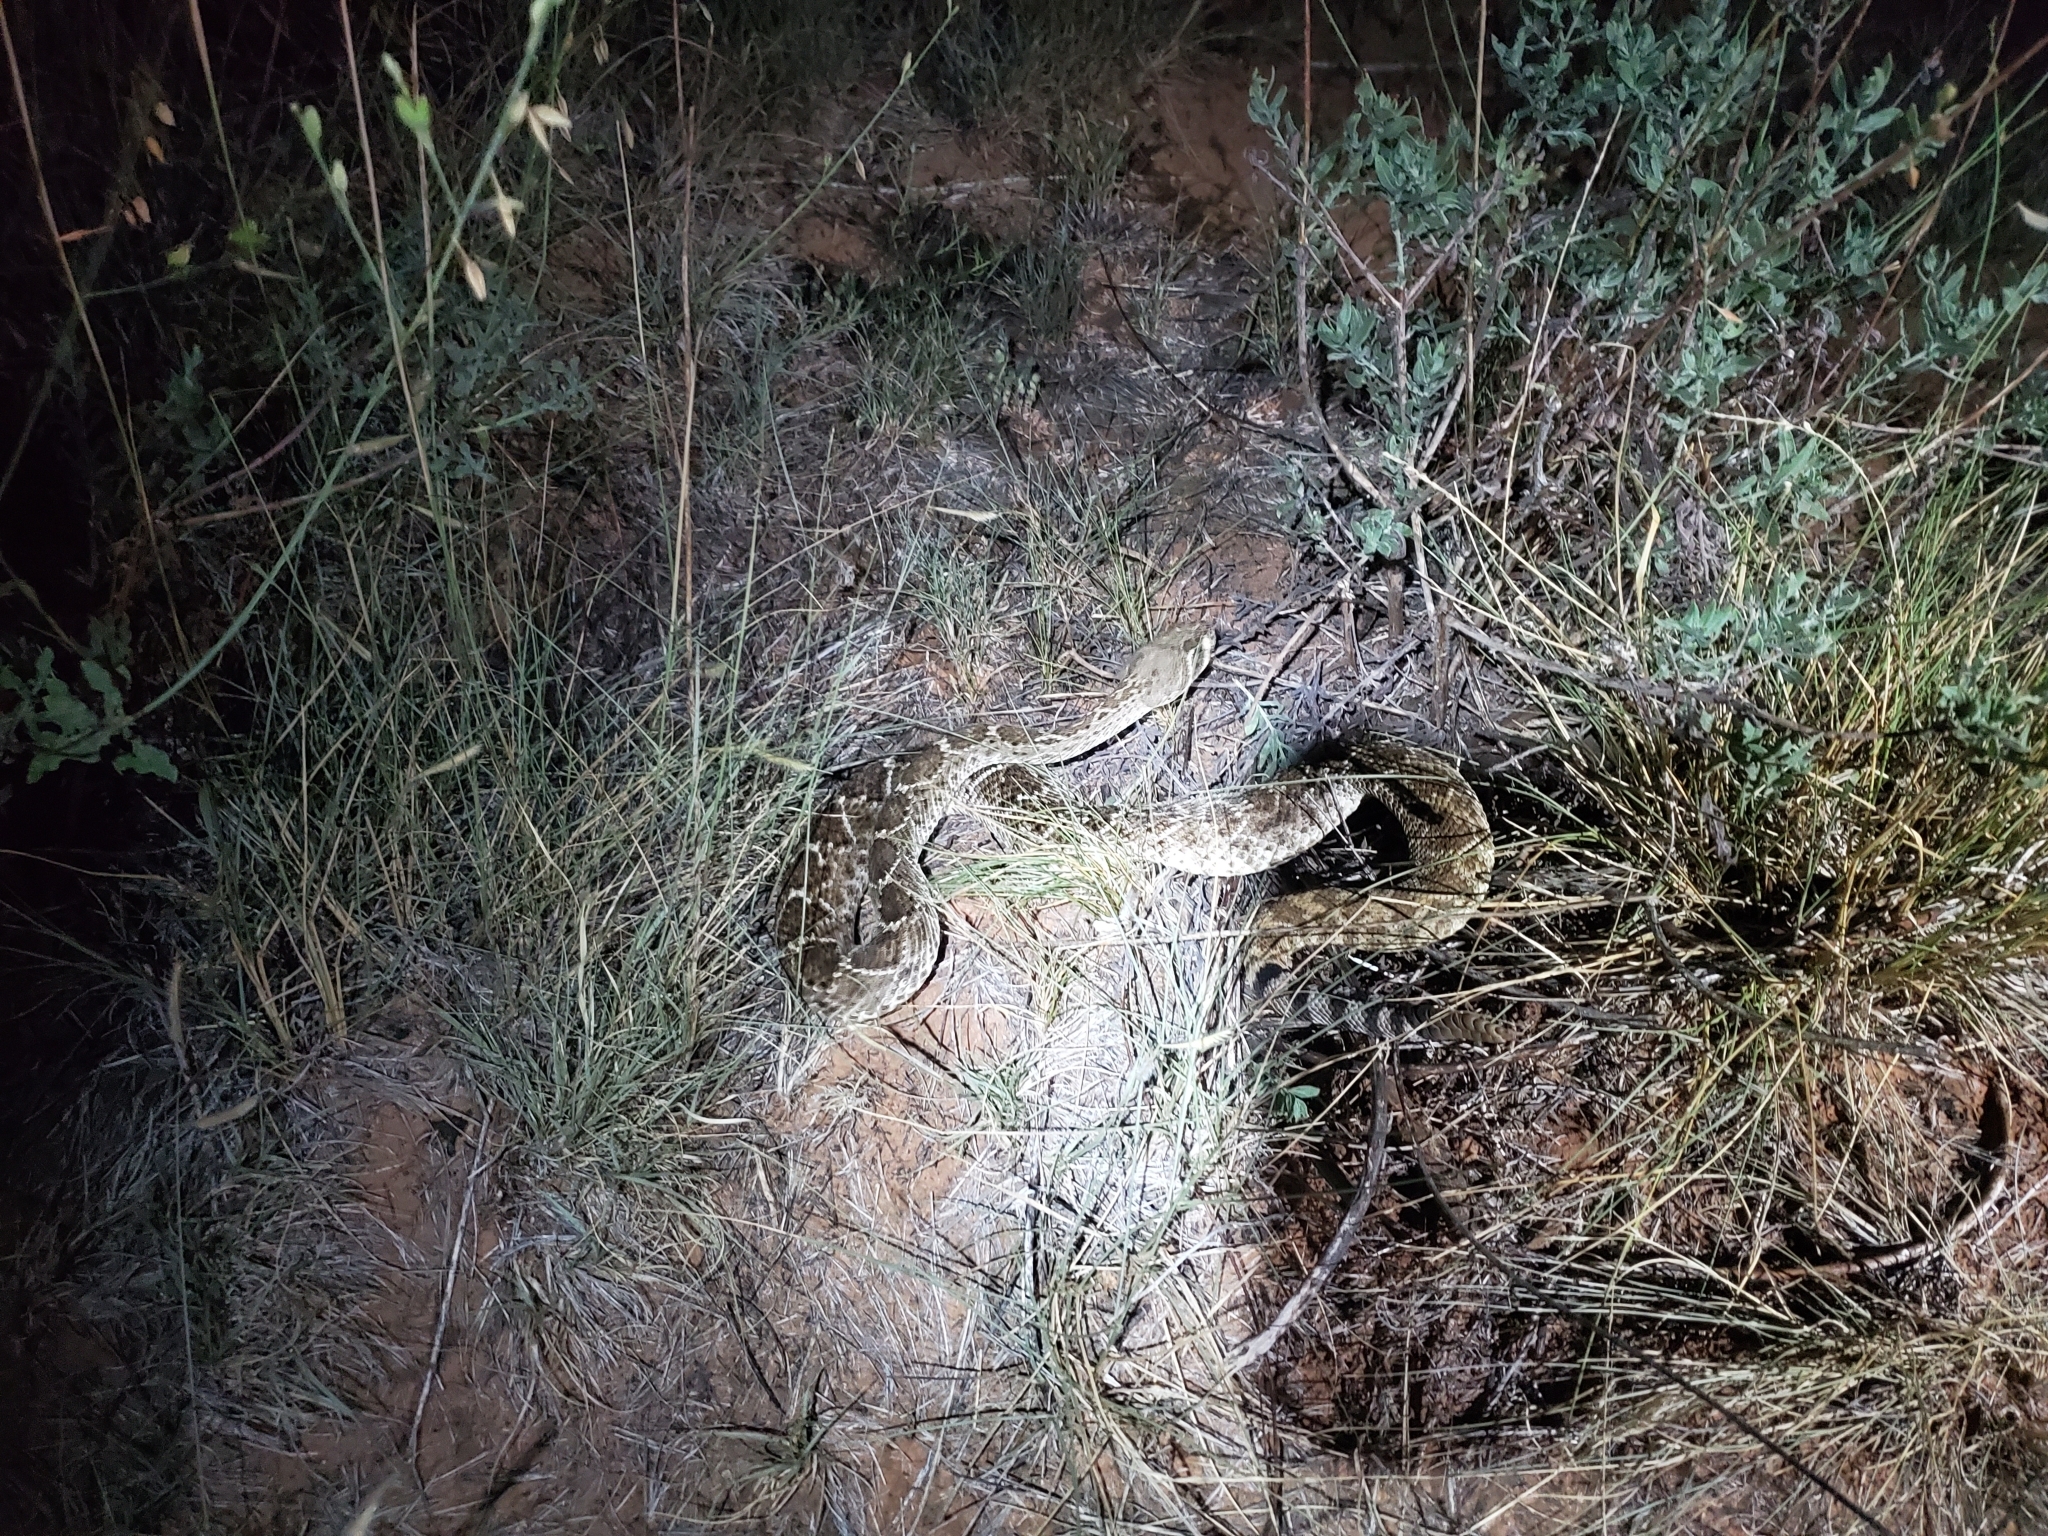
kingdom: Animalia
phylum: Chordata
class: Squamata
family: Viperidae
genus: Crotalus
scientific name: Crotalus atrox
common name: Western diamond-backed rattlesnake
